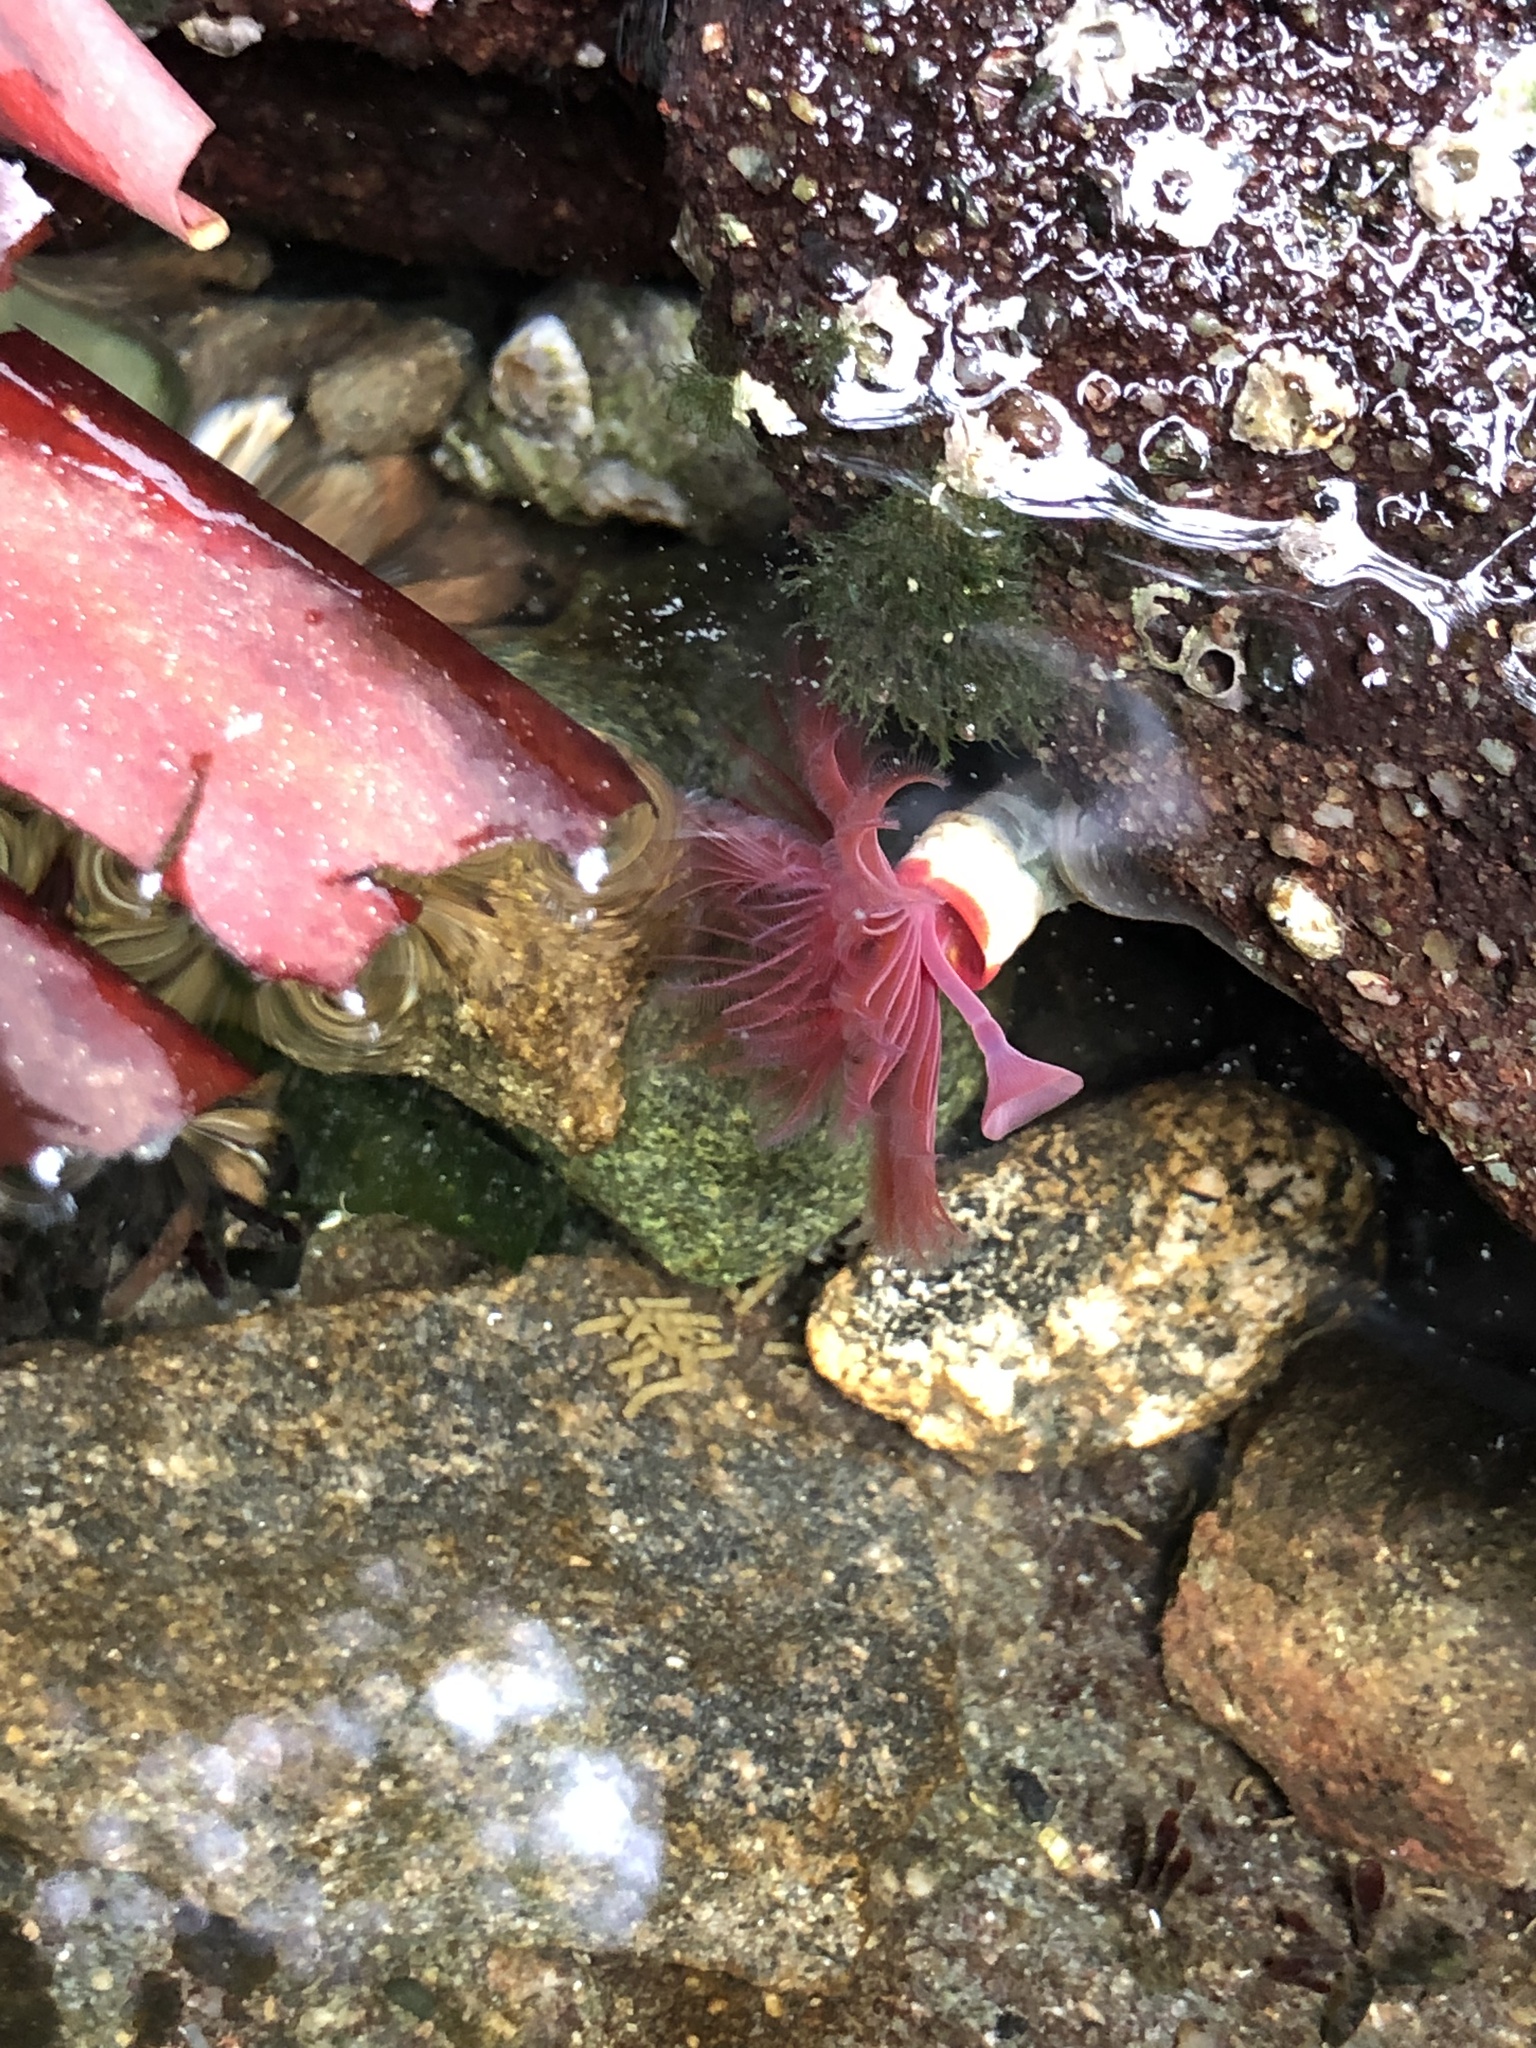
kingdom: Animalia
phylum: Annelida
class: Polychaeta
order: Sabellida
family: Serpulidae
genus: Serpula
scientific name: Serpula columbiana
